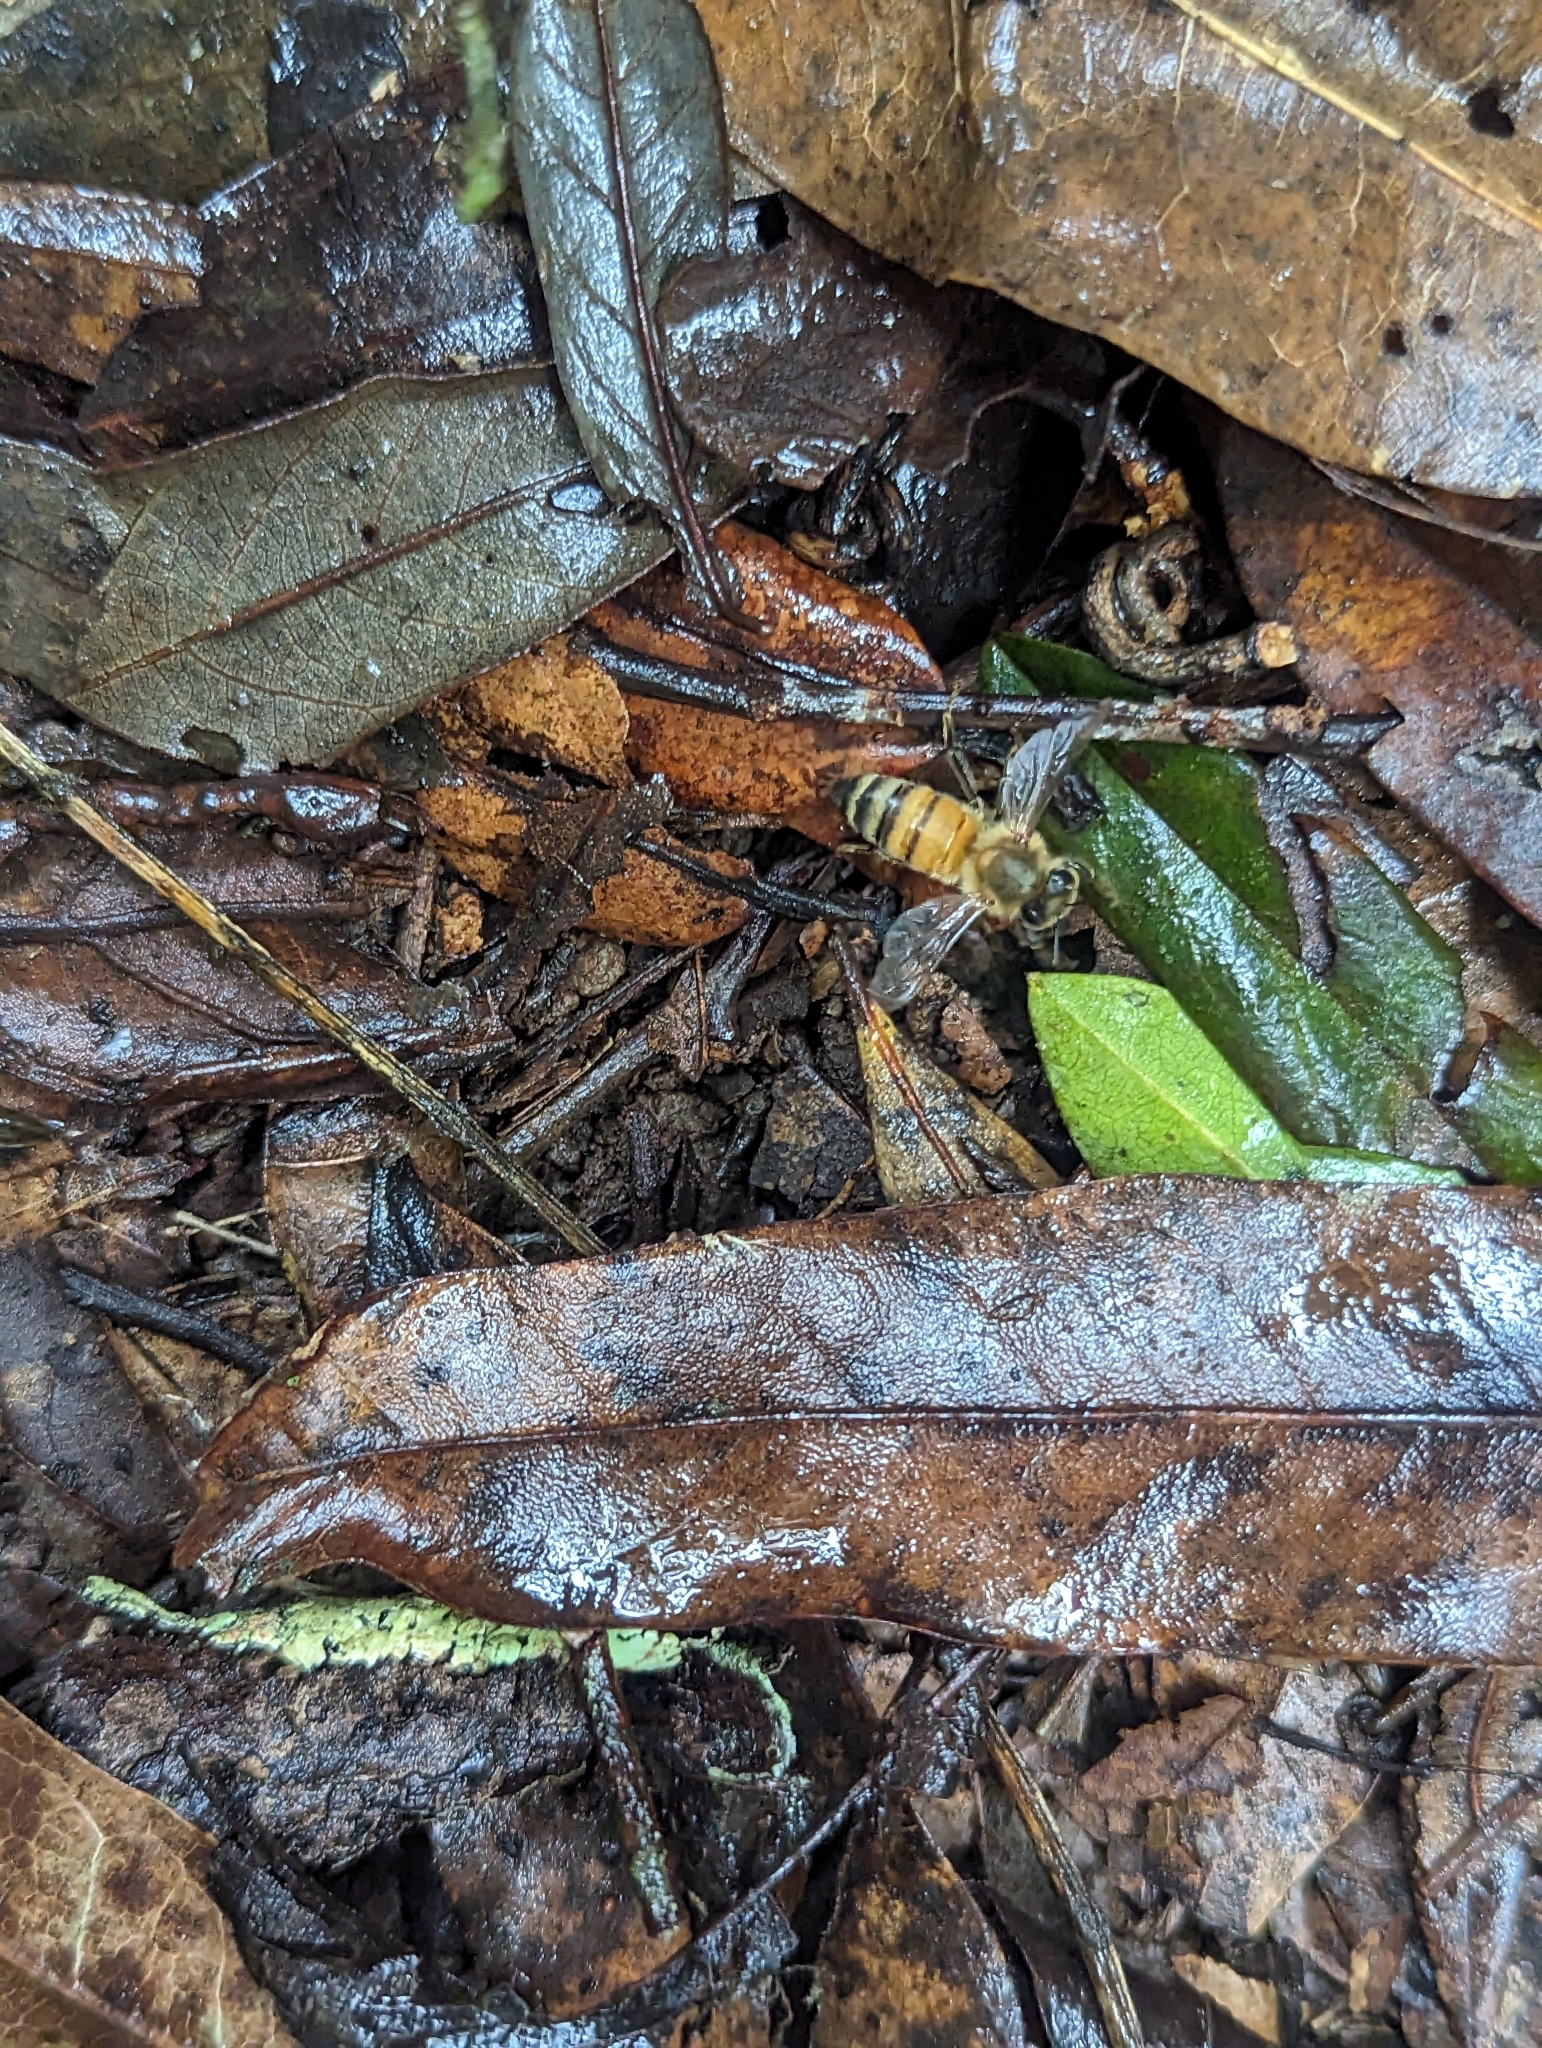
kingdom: Animalia
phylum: Arthropoda
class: Insecta
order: Hymenoptera
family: Apidae
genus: Apis
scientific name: Apis mellifera
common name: Honey bee
